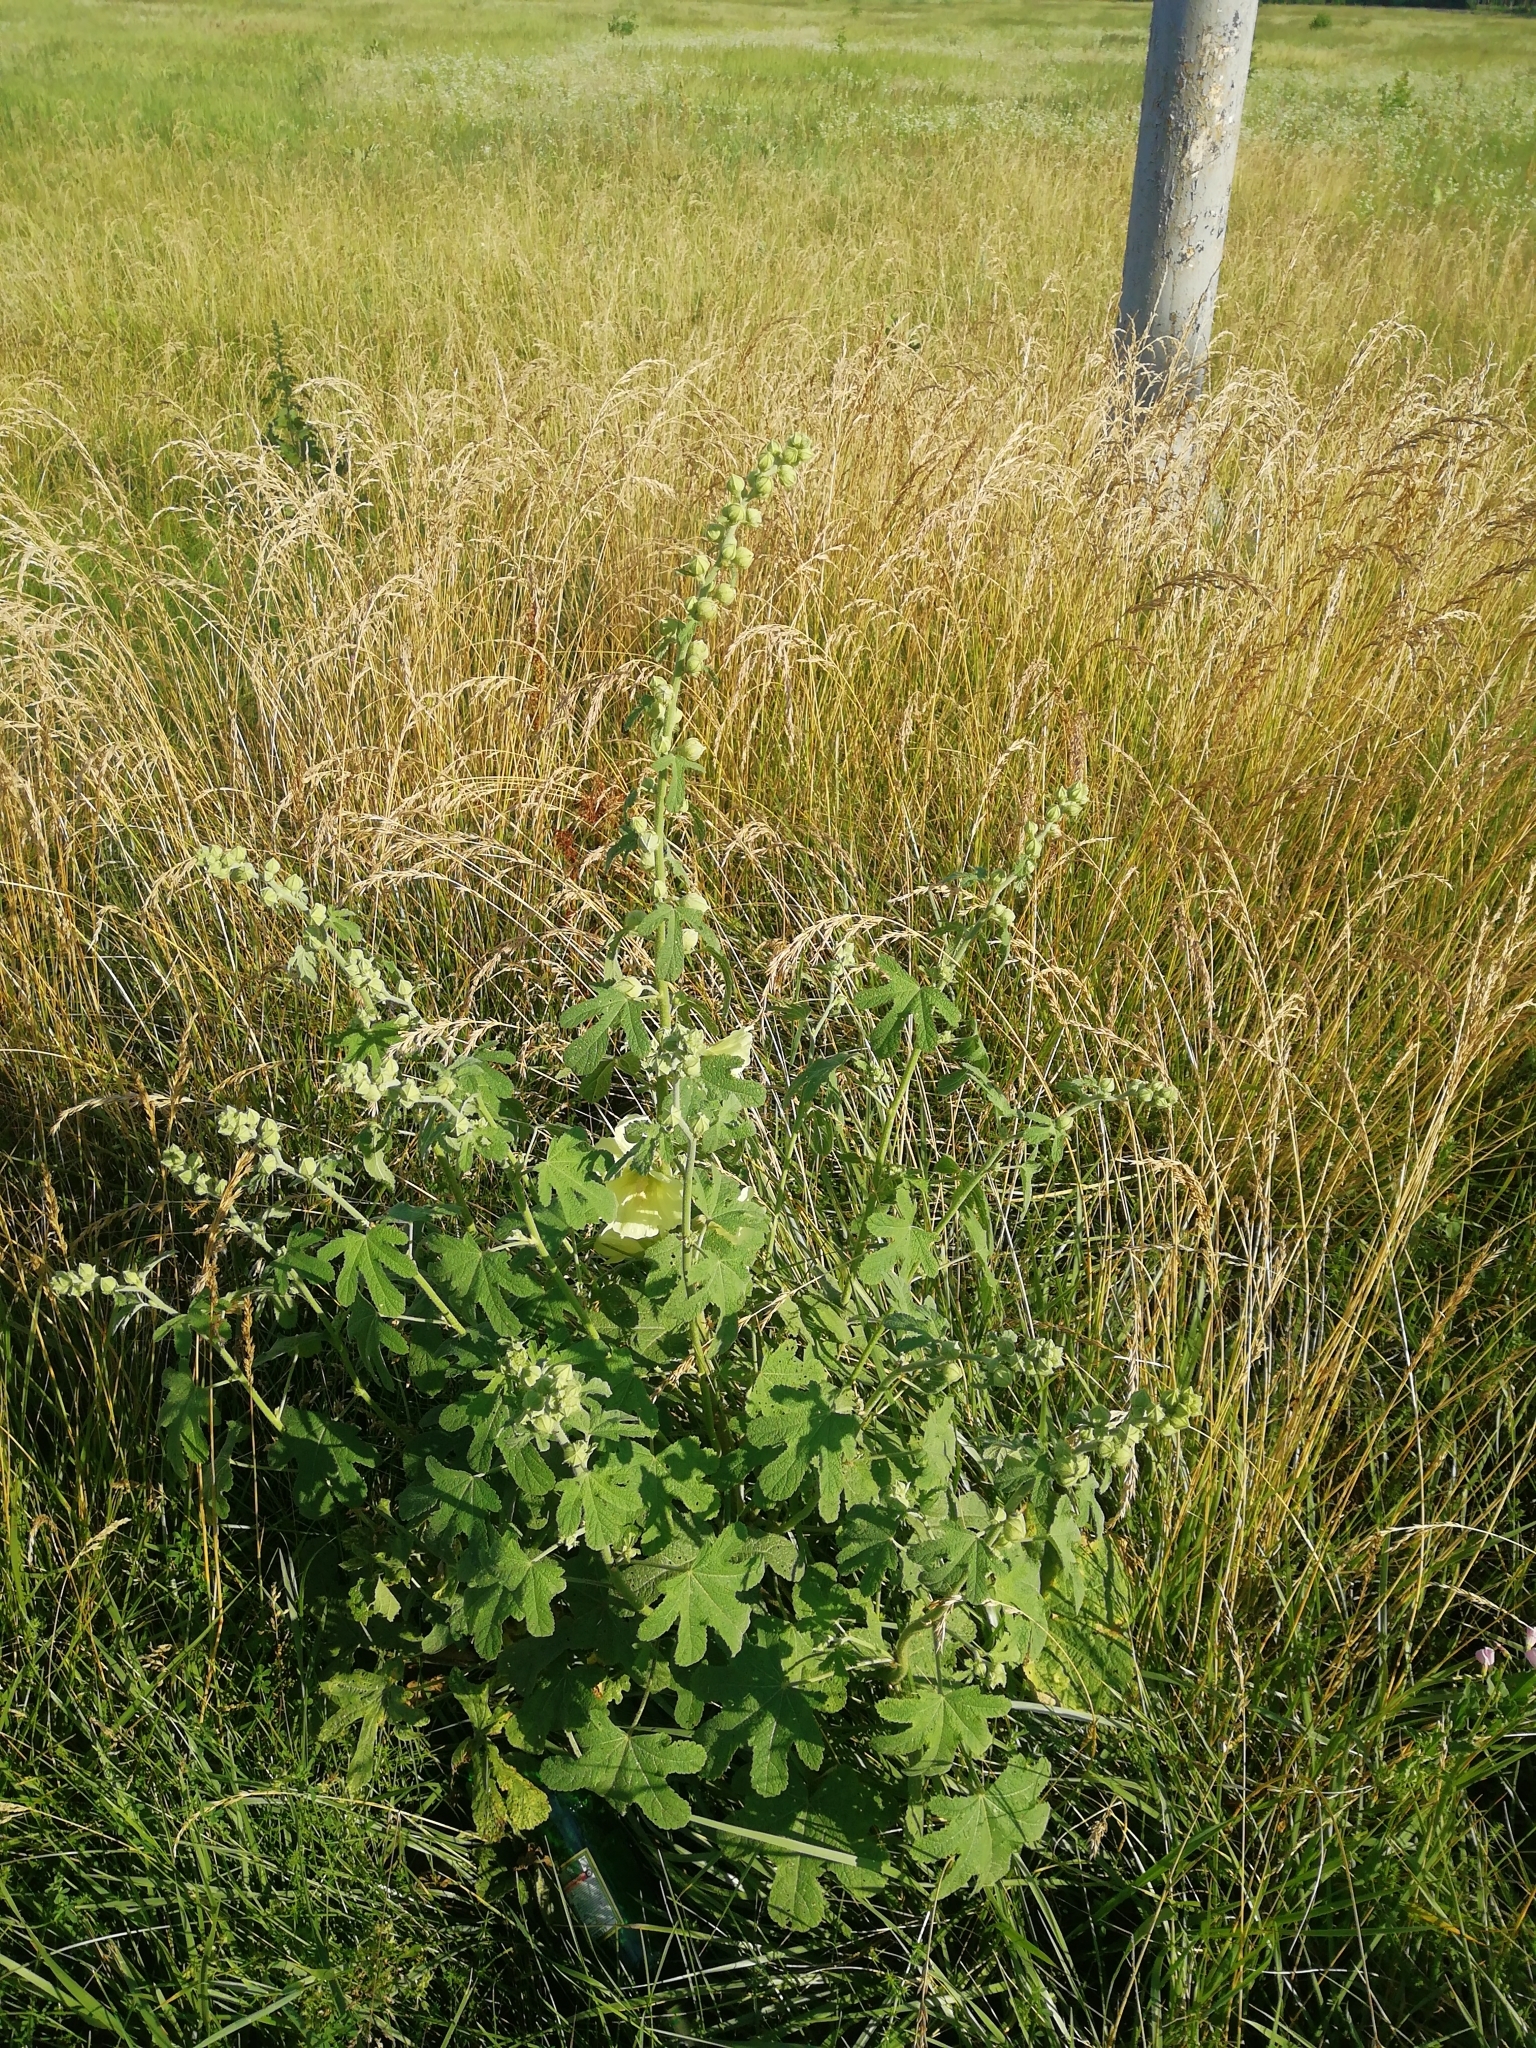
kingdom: Plantae
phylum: Tracheophyta
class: Magnoliopsida
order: Malvales
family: Malvaceae
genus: Alcea
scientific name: Alcea rugosa
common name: Russian hollyhock
